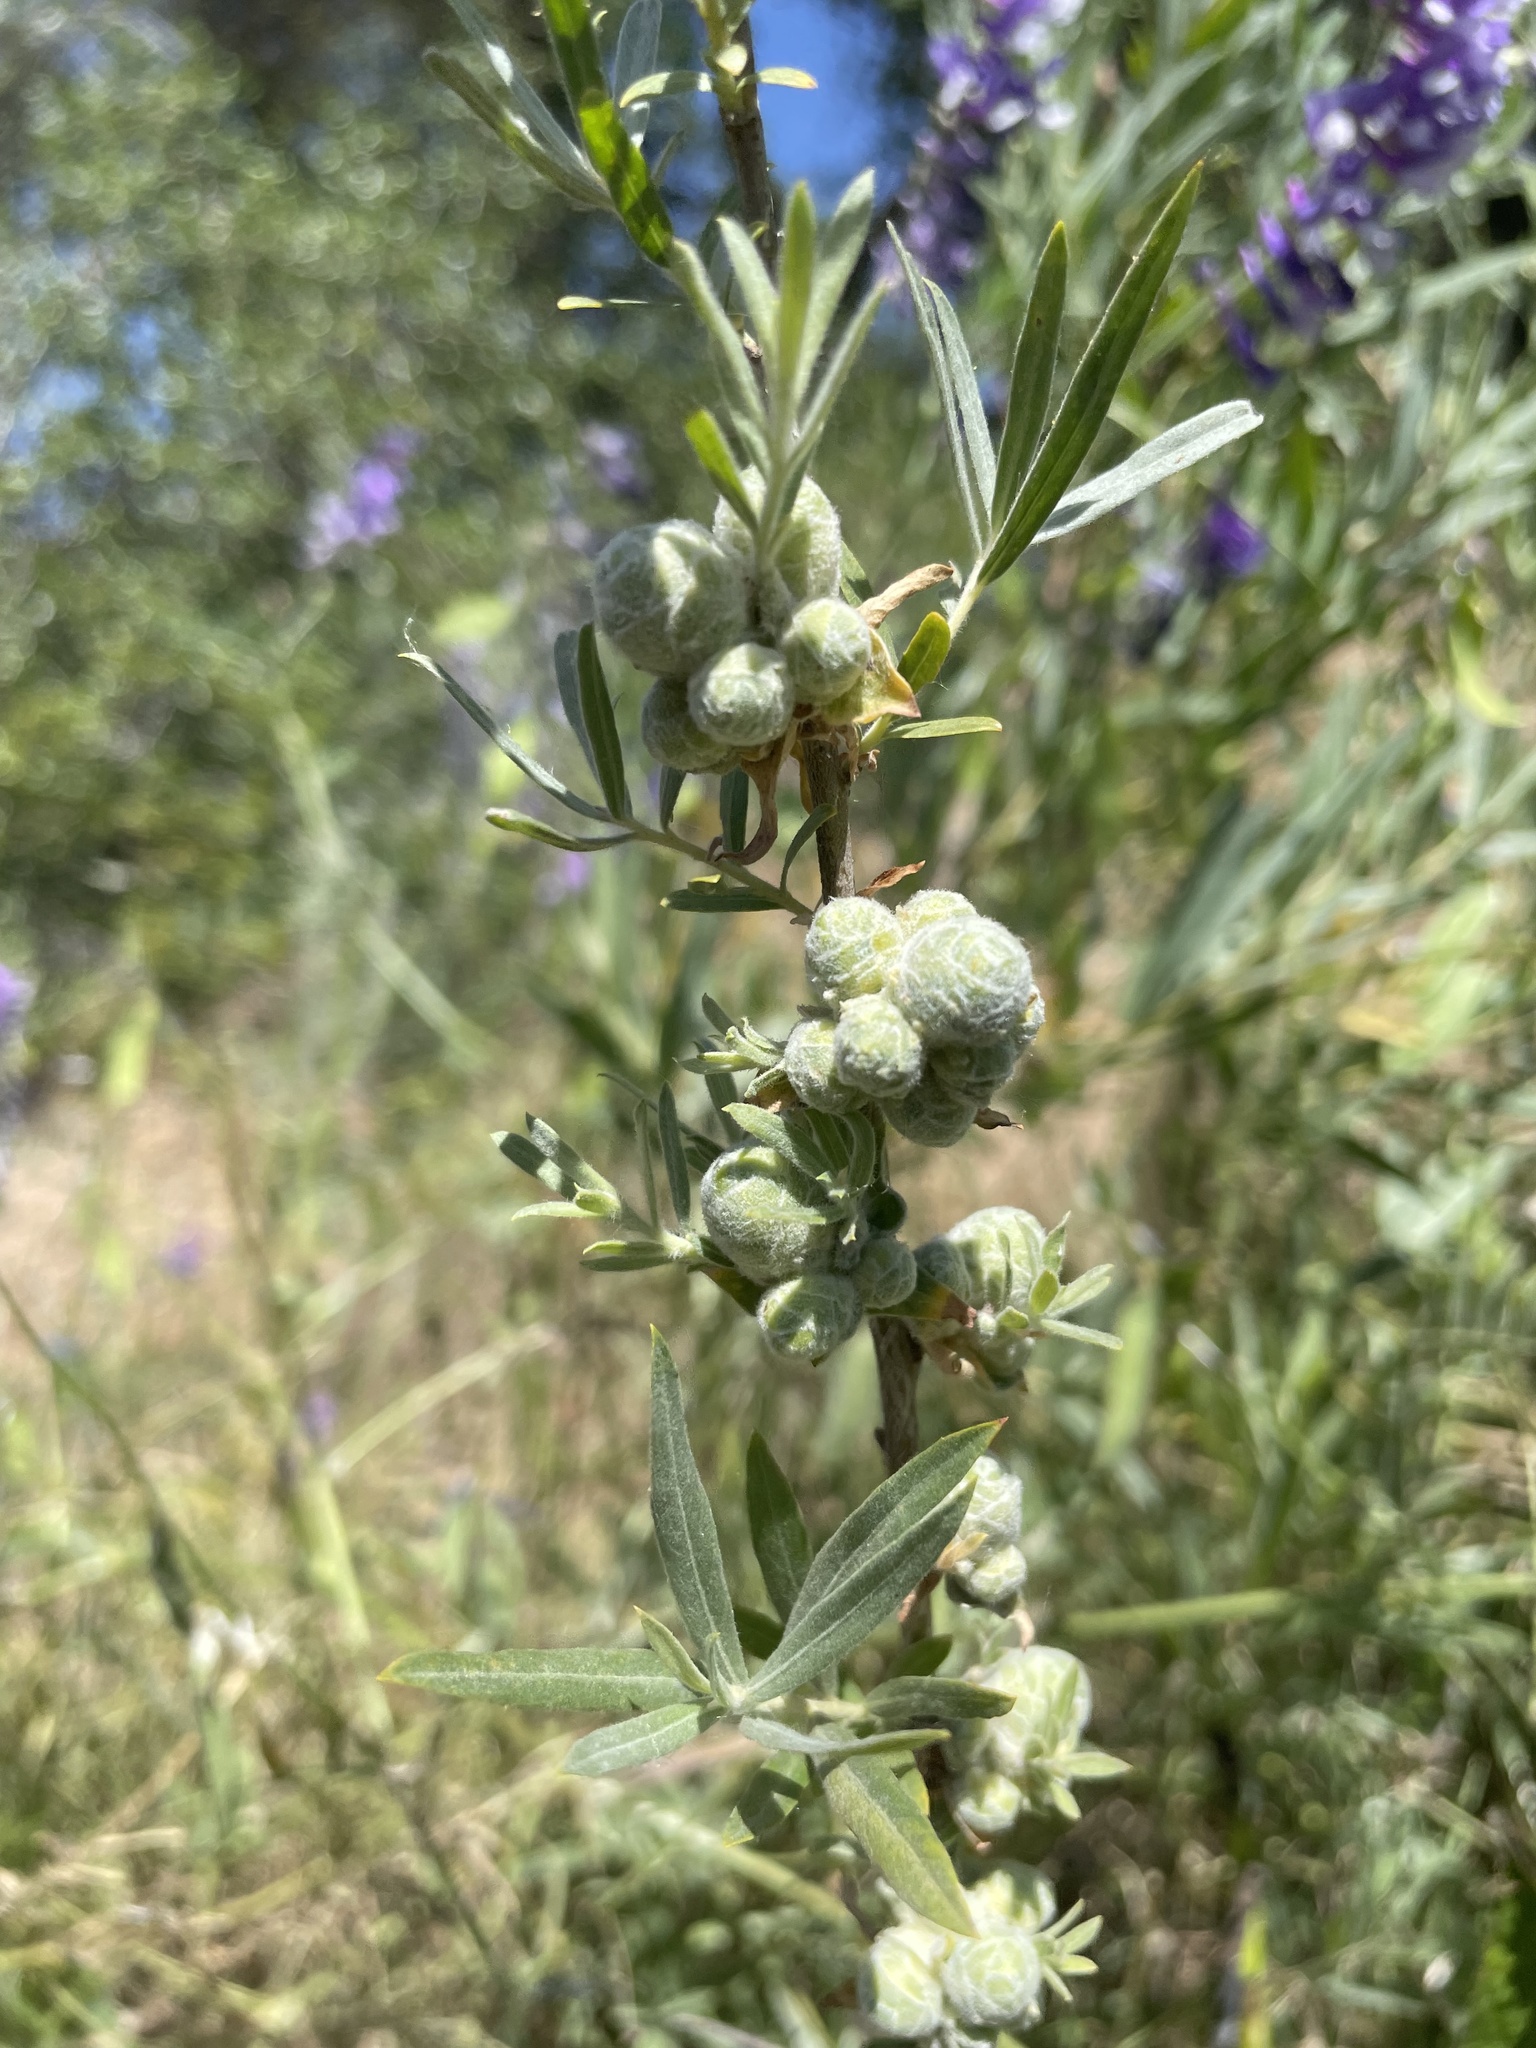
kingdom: Animalia
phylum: Arthropoda
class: Insecta
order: Diptera
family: Cecidomyiidae
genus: Rabdophaga
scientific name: Rabdophaga strobiloides
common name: Willow pinecone gall midge
